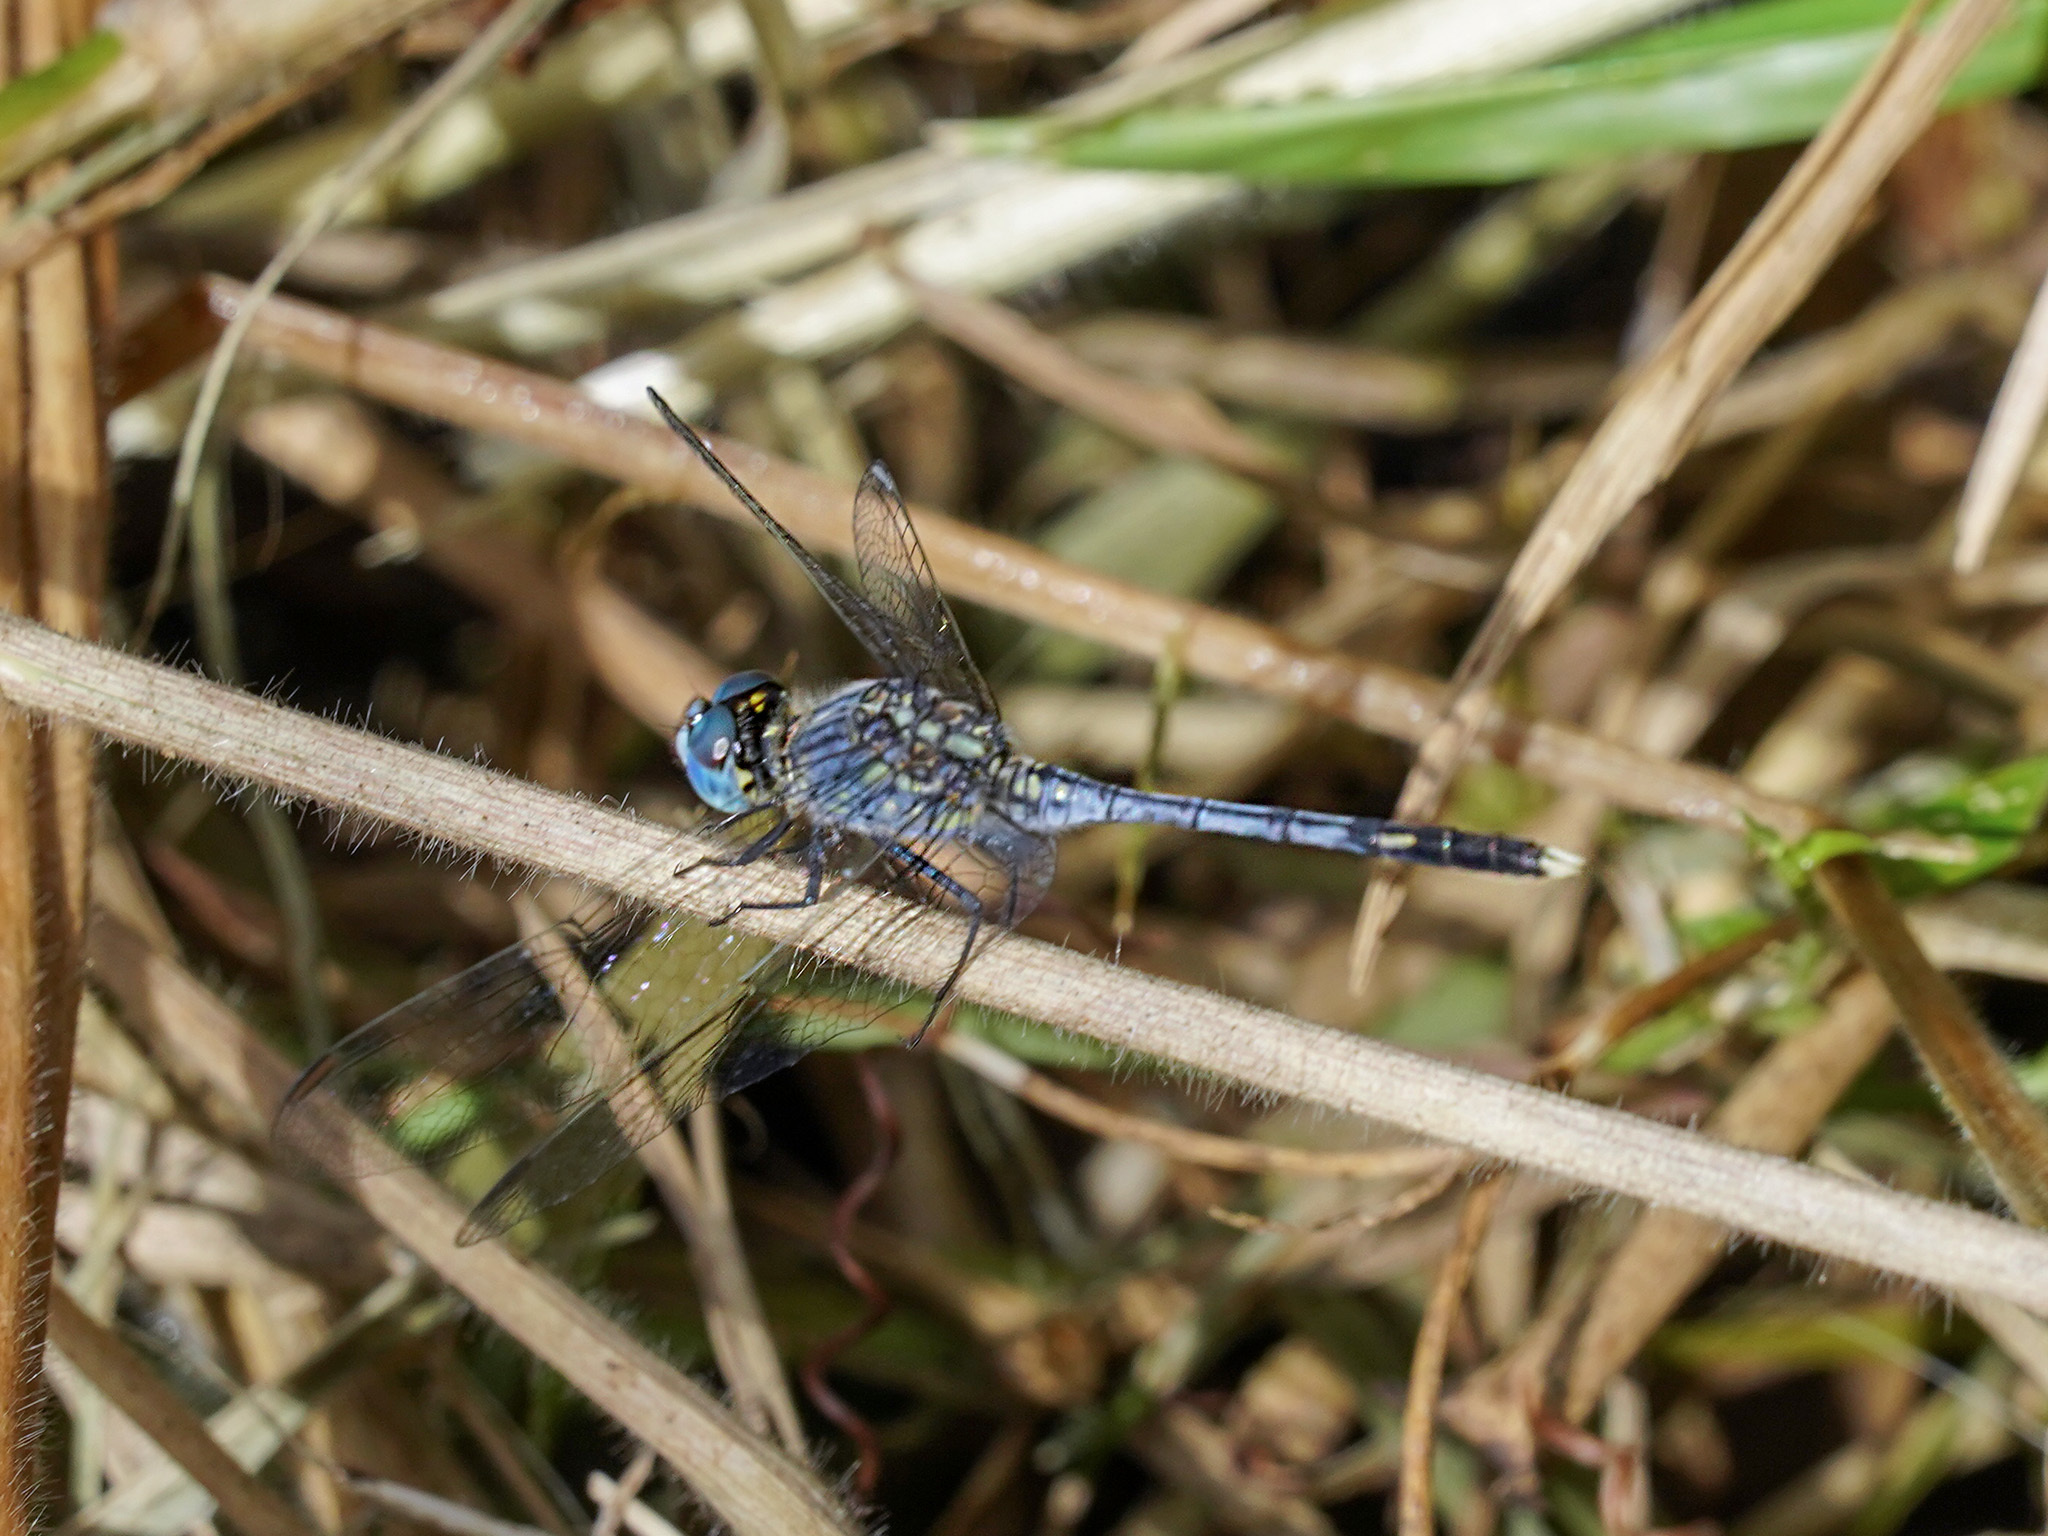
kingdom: Animalia
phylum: Arthropoda
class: Insecta
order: Odonata
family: Libellulidae
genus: Diplacodes
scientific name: Diplacodes trivialis
